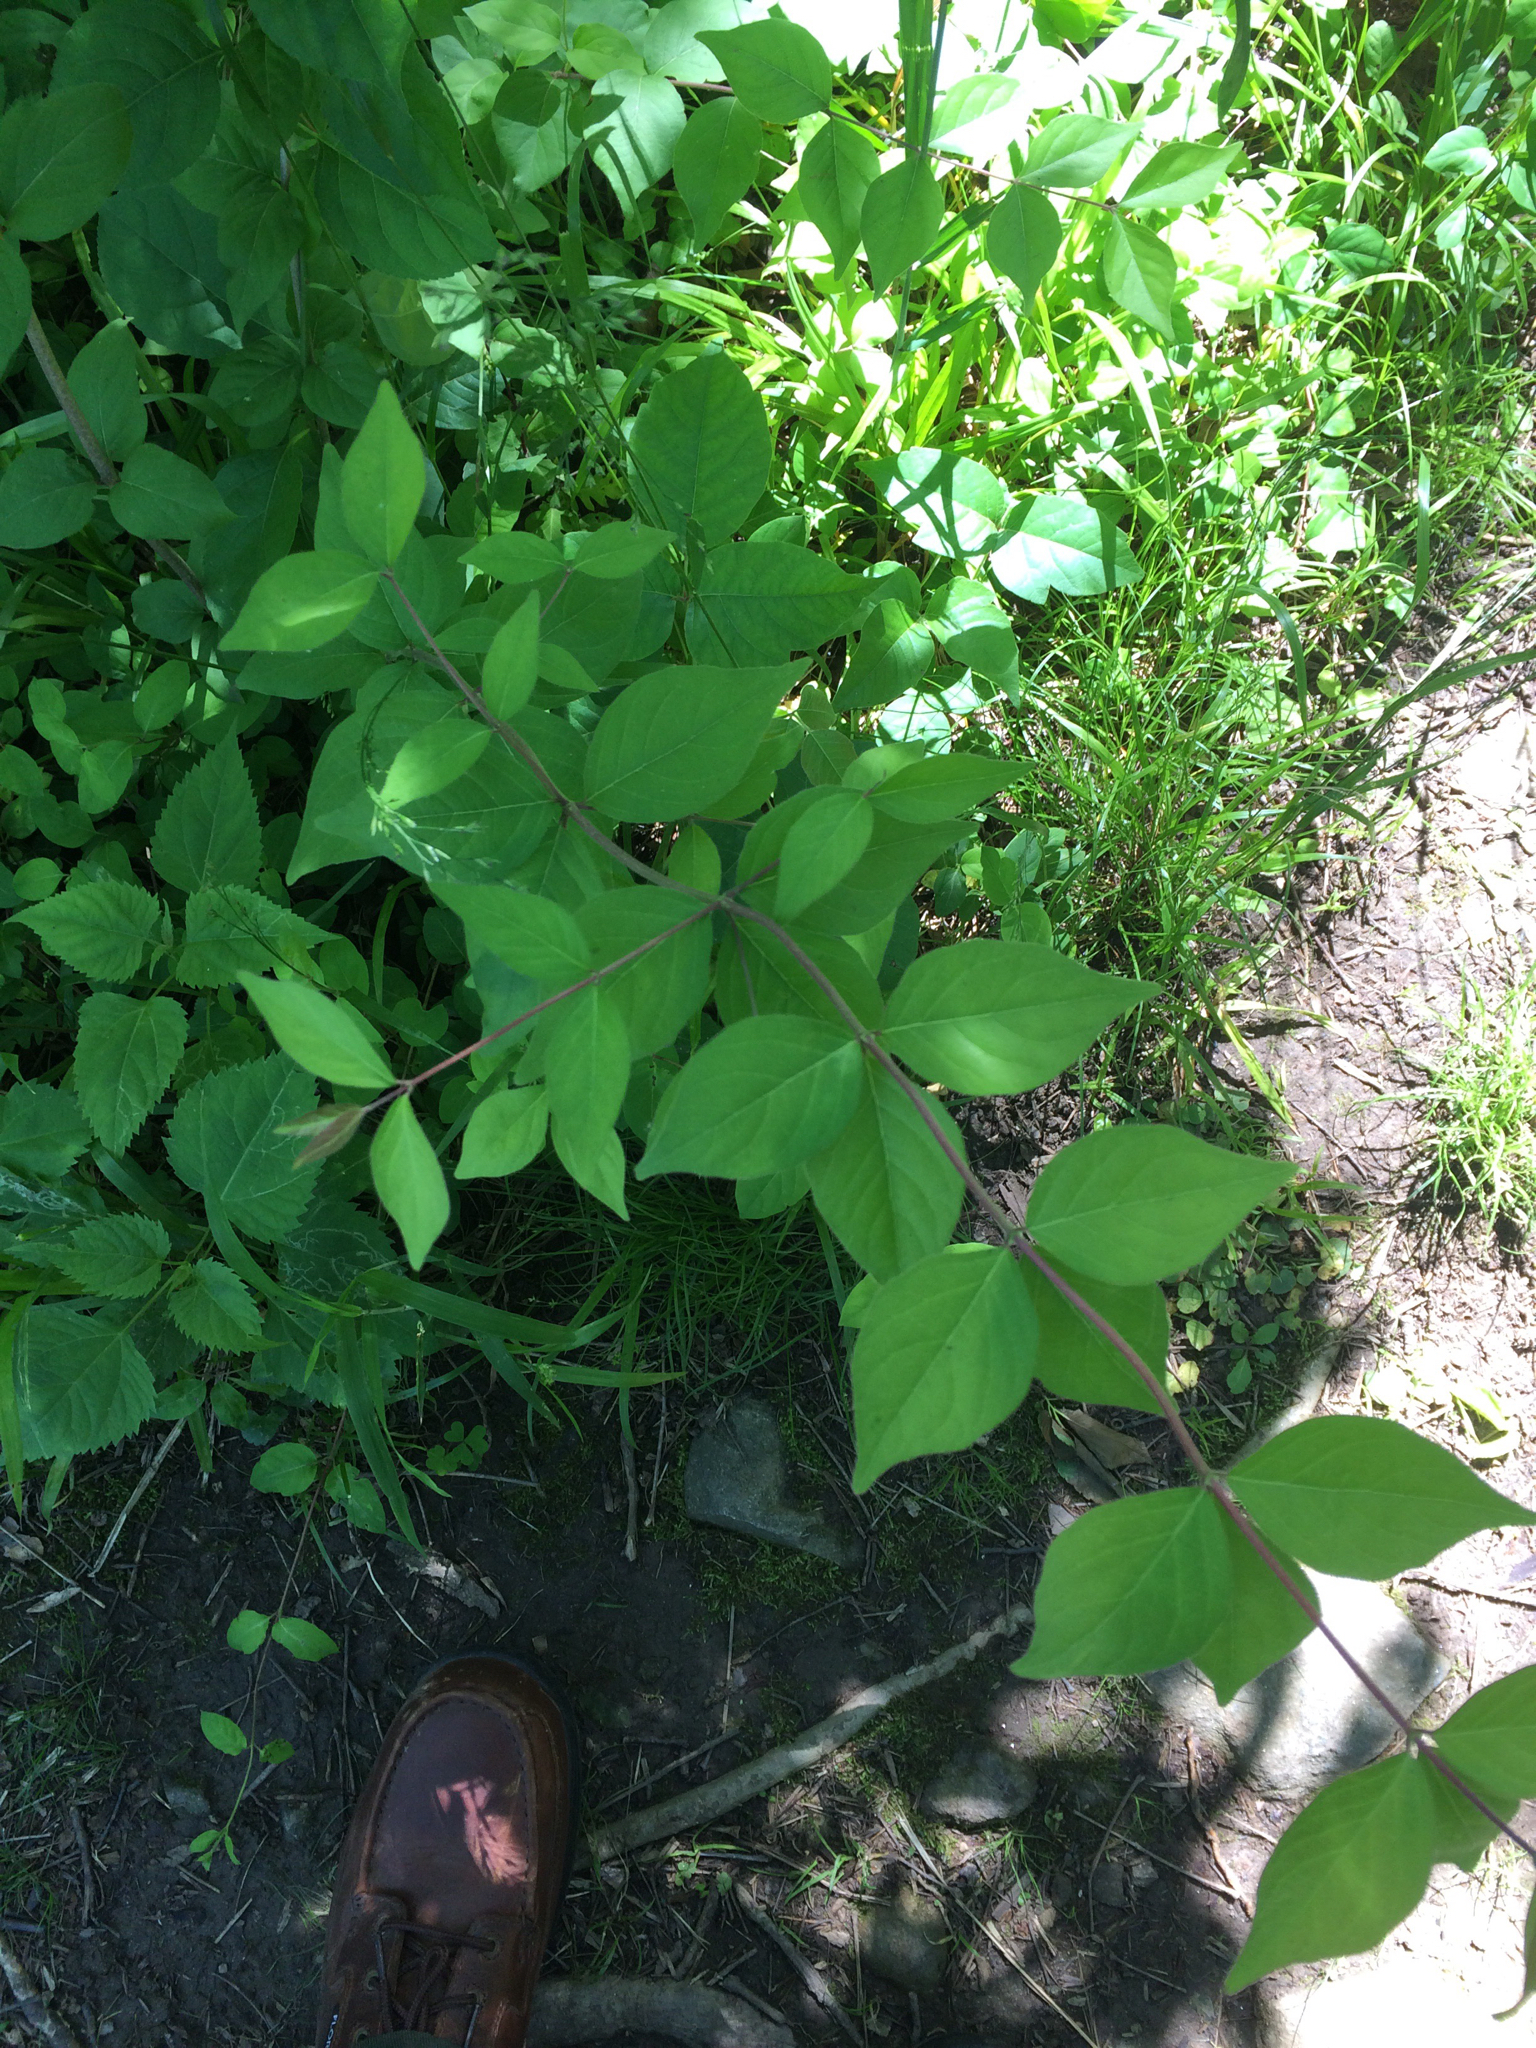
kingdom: Plantae
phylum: Tracheophyta
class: Magnoliopsida
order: Dipsacales
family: Caprifoliaceae
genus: Lonicera
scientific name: Lonicera maackii
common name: Amur honeysuckle
